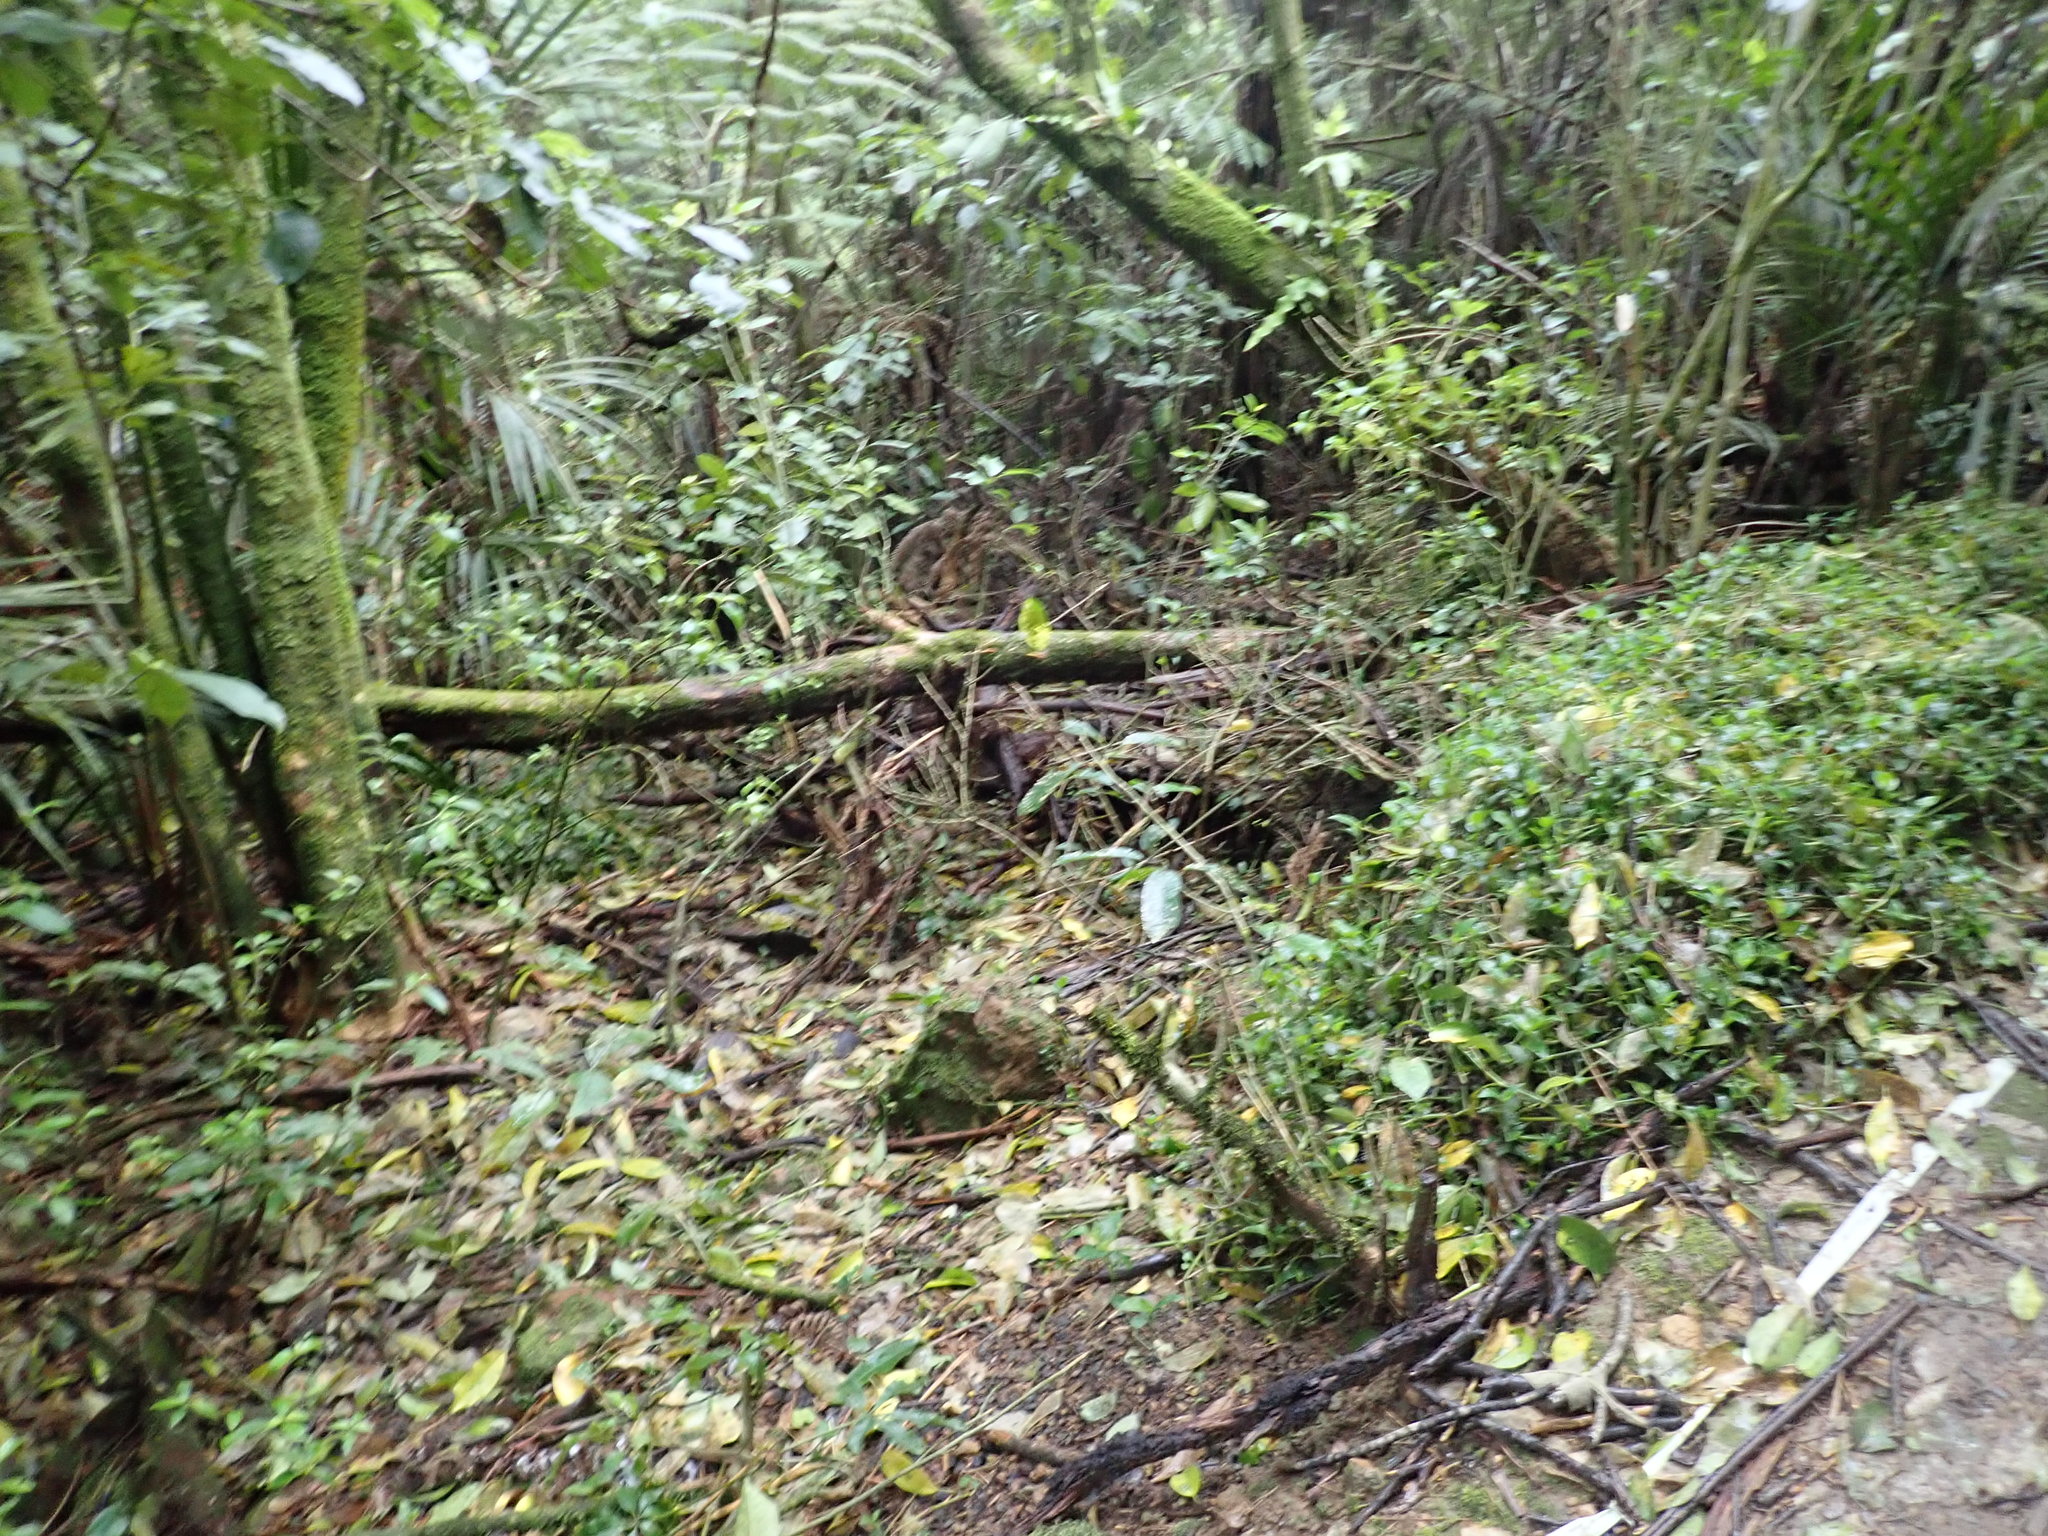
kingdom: Plantae
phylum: Tracheophyta
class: Liliopsida
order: Commelinales
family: Commelinaceae
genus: Tradescantia
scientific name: Tradescantia fluminensis
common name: Wandering-jew
